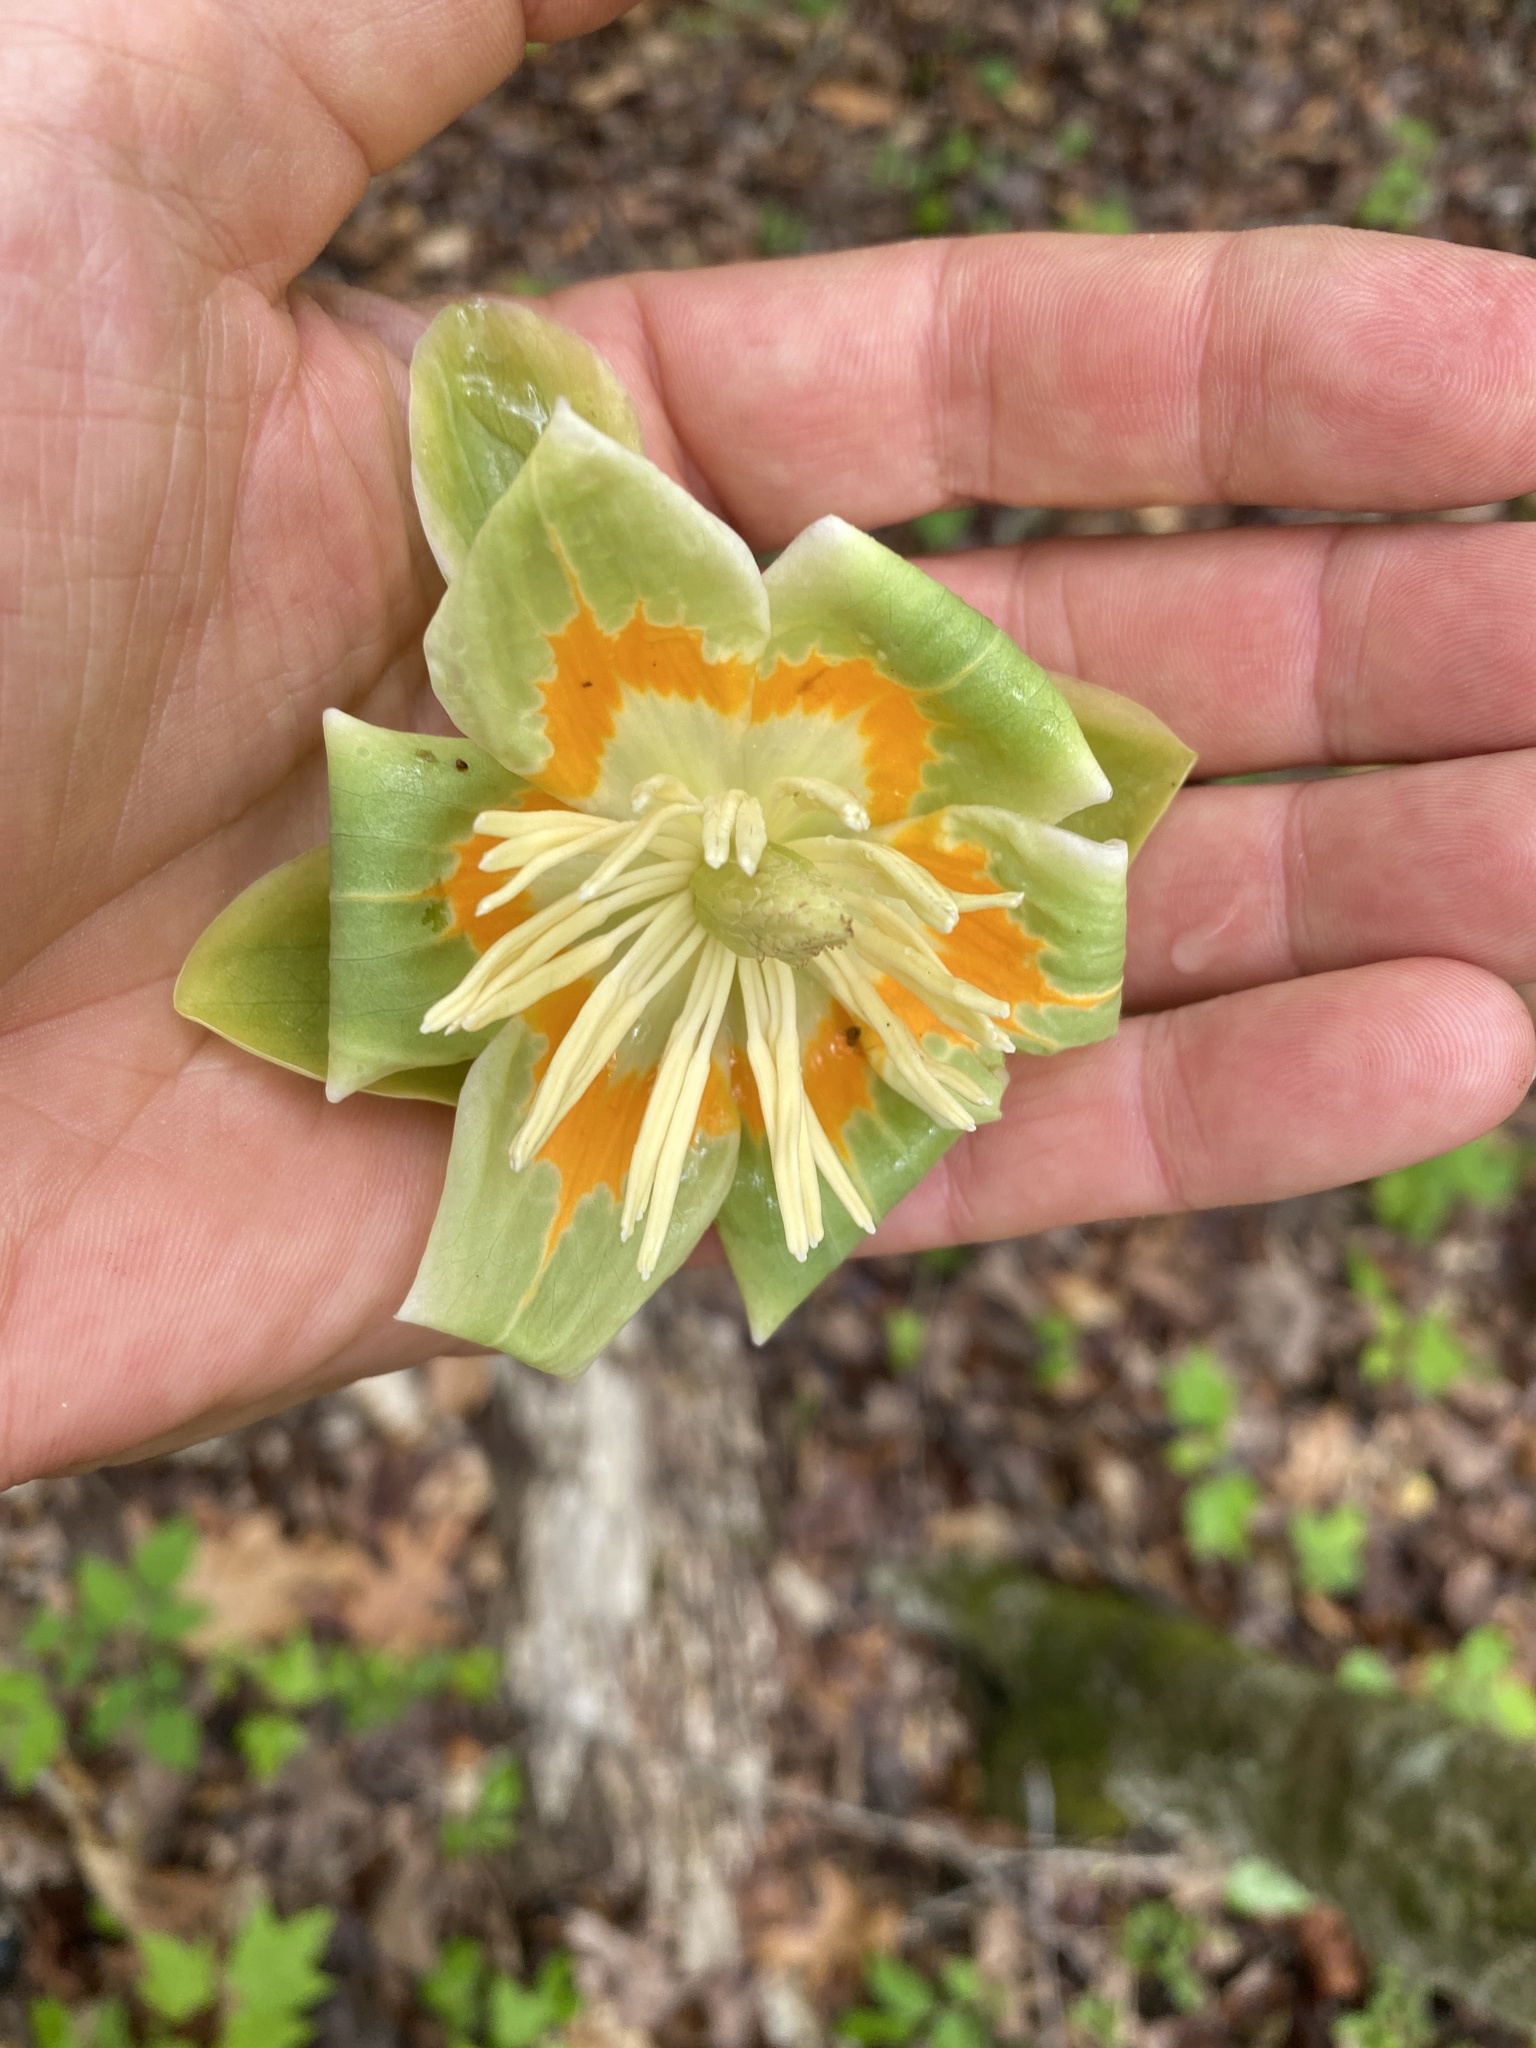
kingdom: Plantae
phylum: Tracheophyta
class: Magnoliopsida
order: Magnoliales
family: Magnoliaceae
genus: Liriodendron
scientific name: Liriodendron tulipifera
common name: Tulip tree
